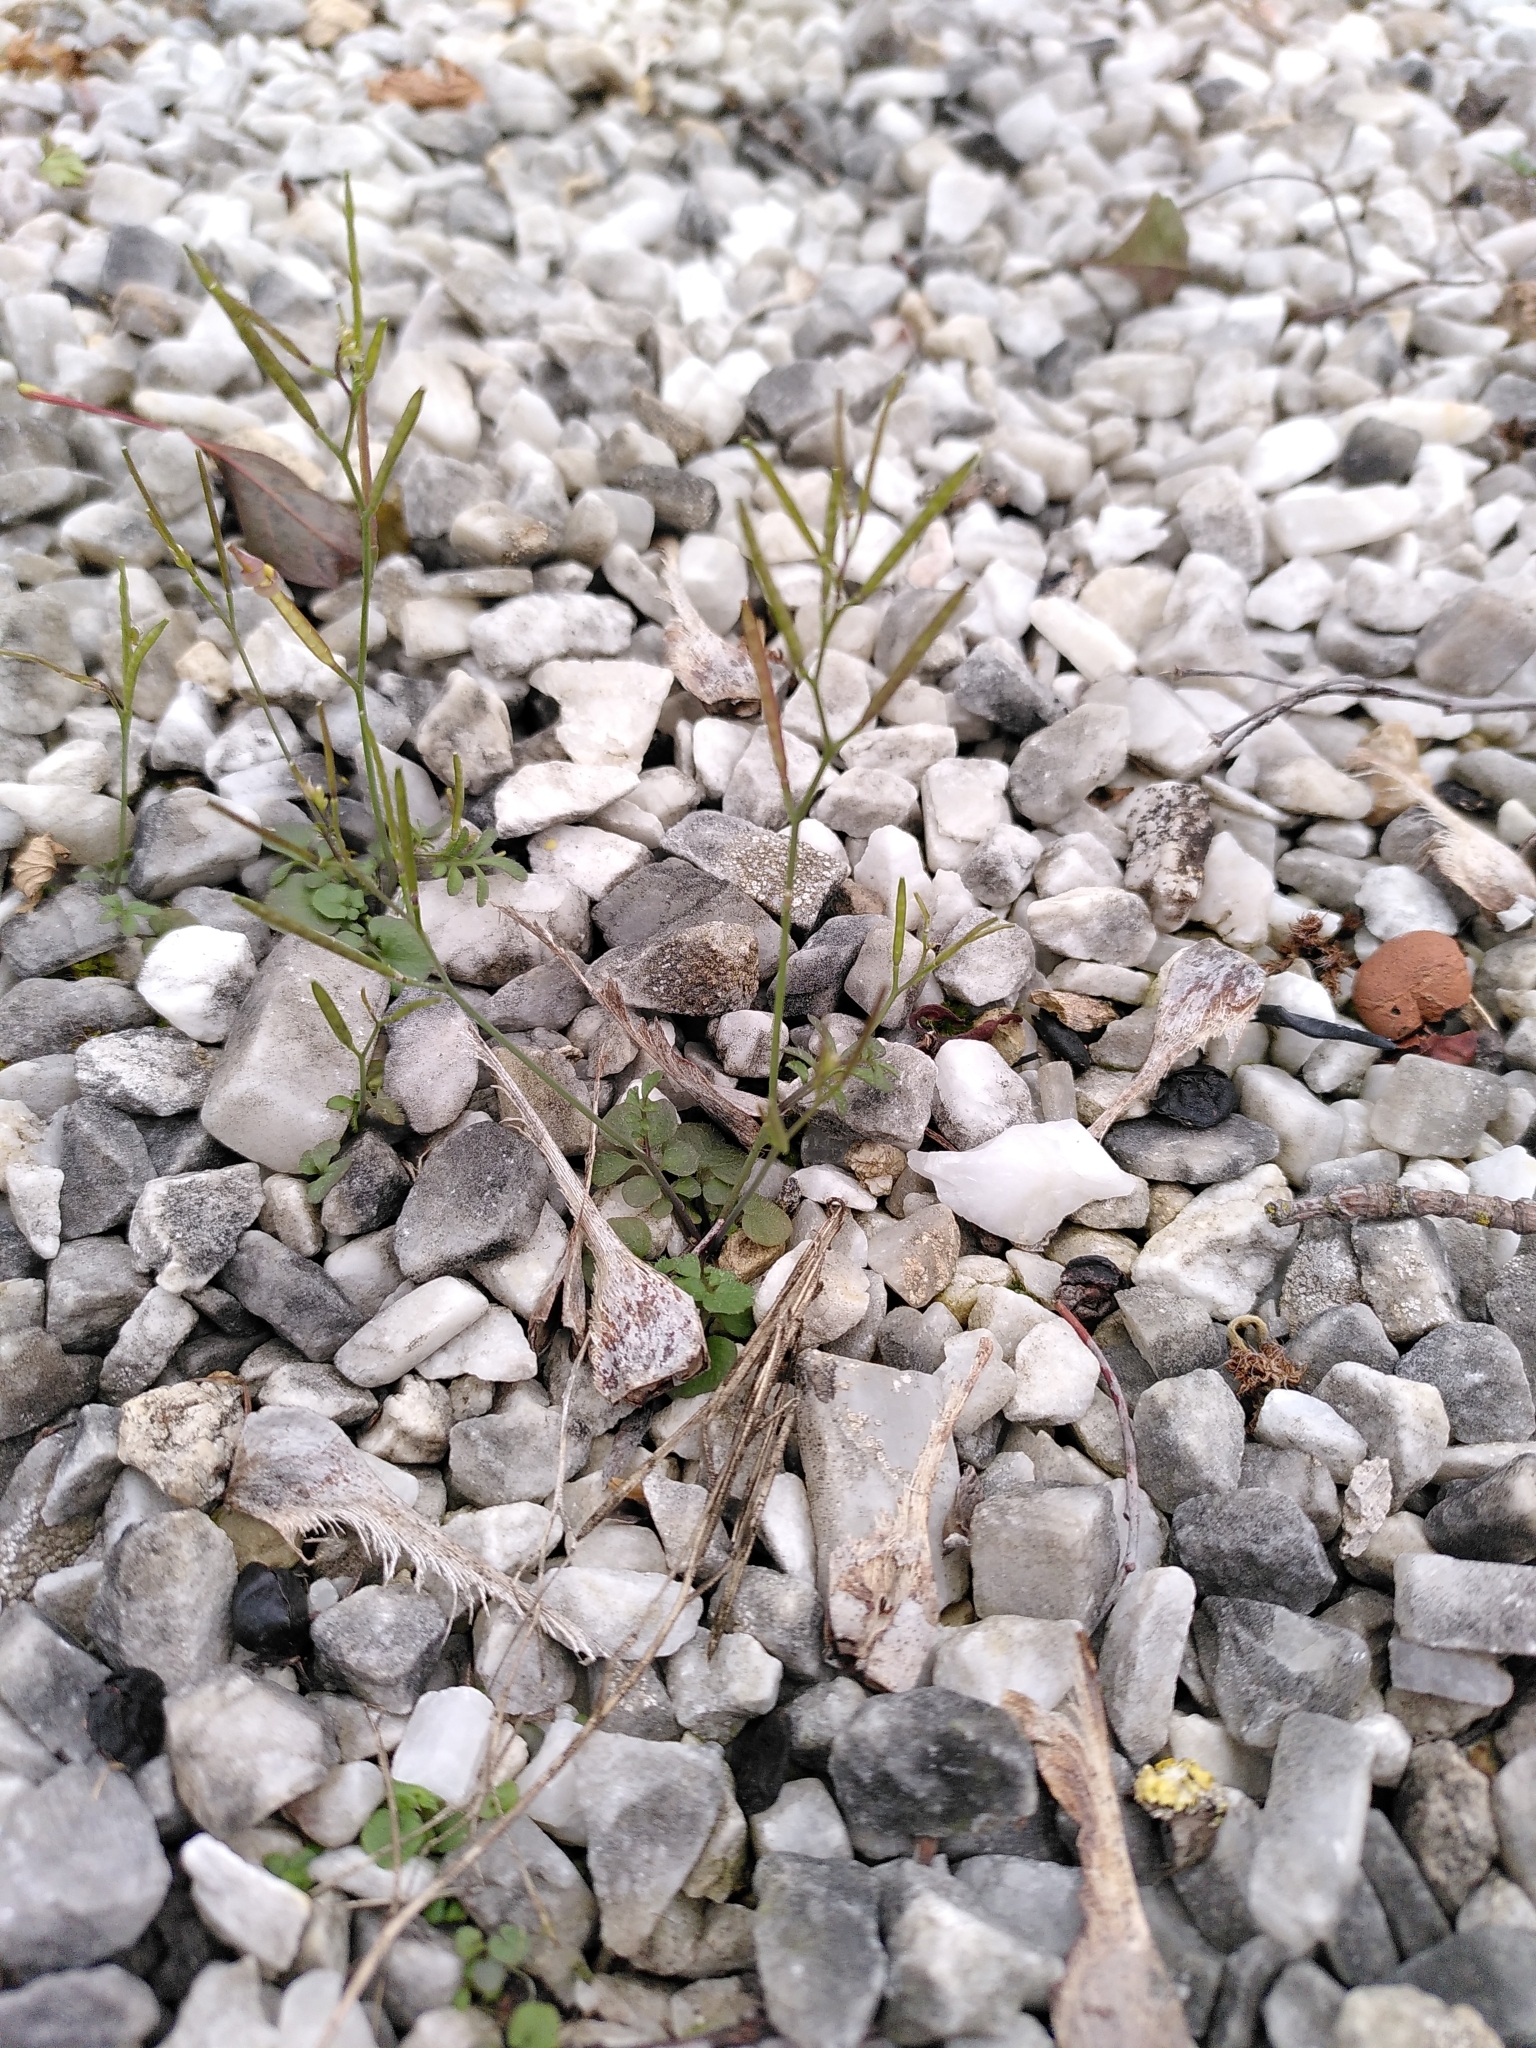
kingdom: Plantae
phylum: Tracheophyta
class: Magnoliopsida
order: Brassicales
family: Brassicaceae
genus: Cardamine
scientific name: Cardamine hirsuta
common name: Hairy bittercress
